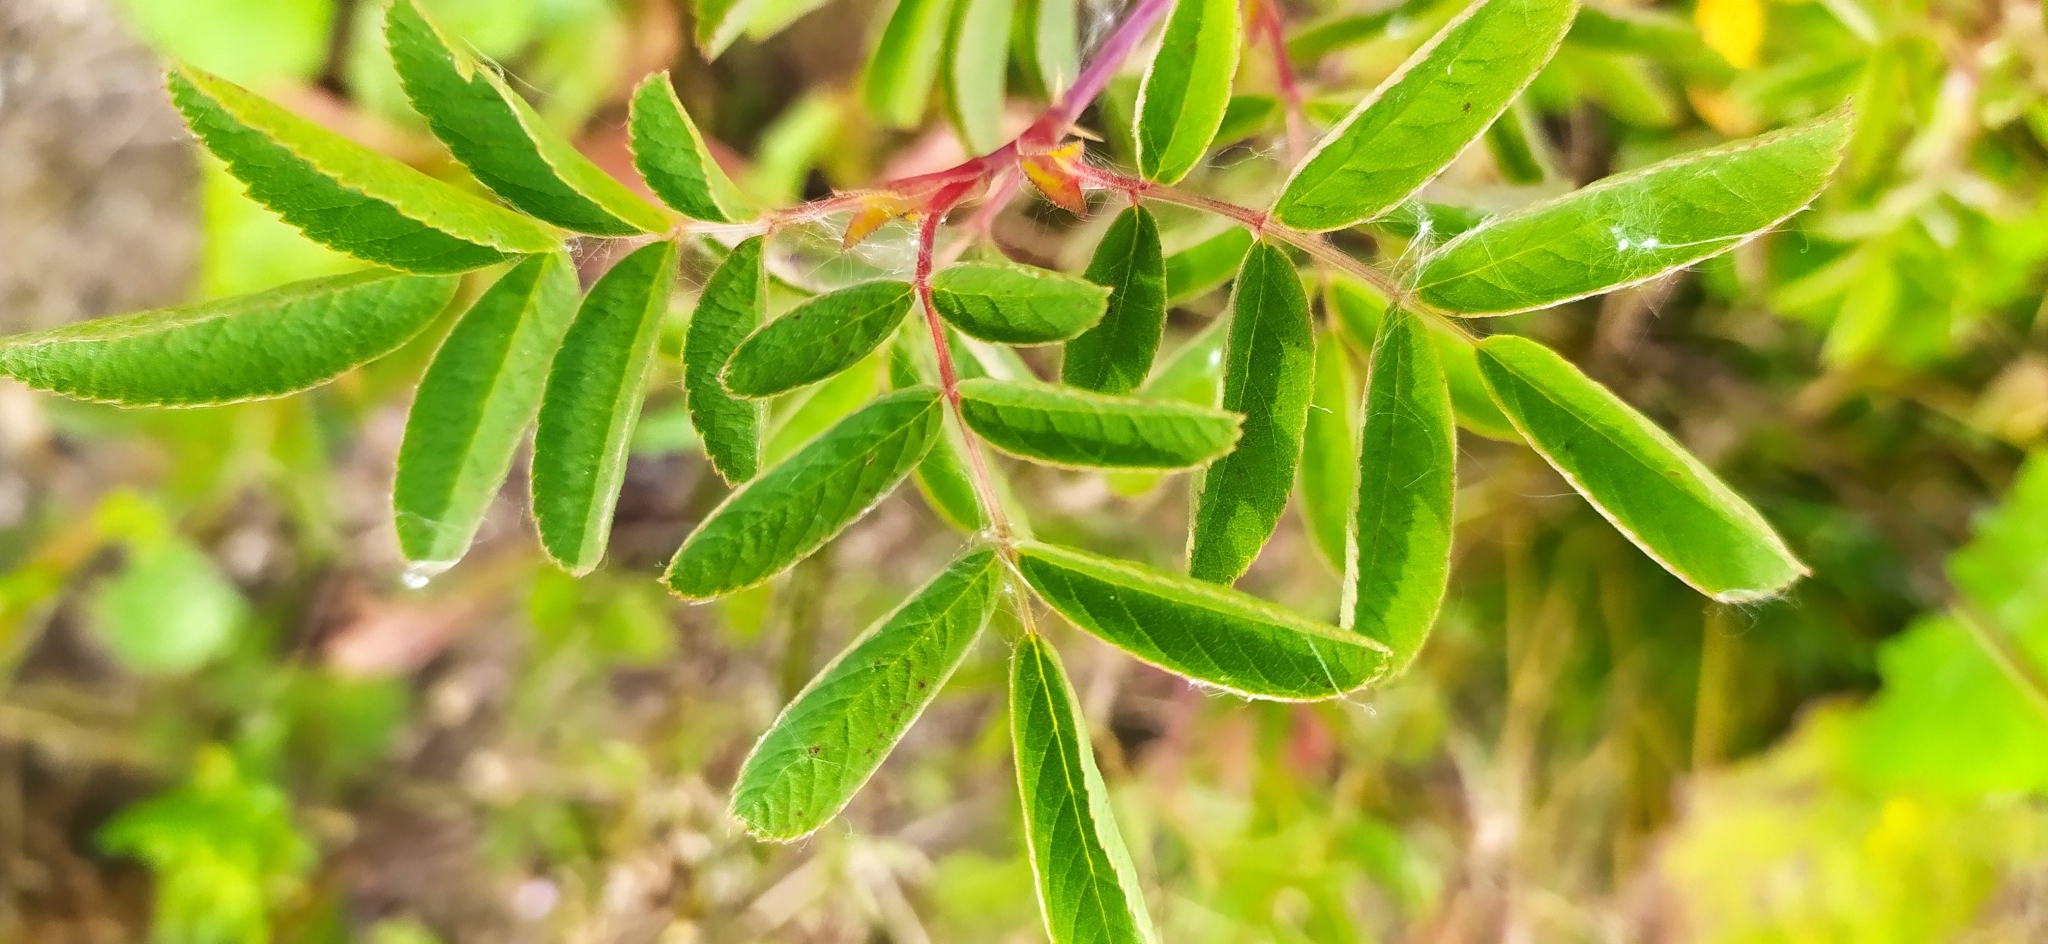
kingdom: Plantae
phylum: Tracheophyta
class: Magnoliopsida
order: Rosales
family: Rosaceae
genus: Rosa
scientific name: Rosa majalis
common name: Cinnamon rose
